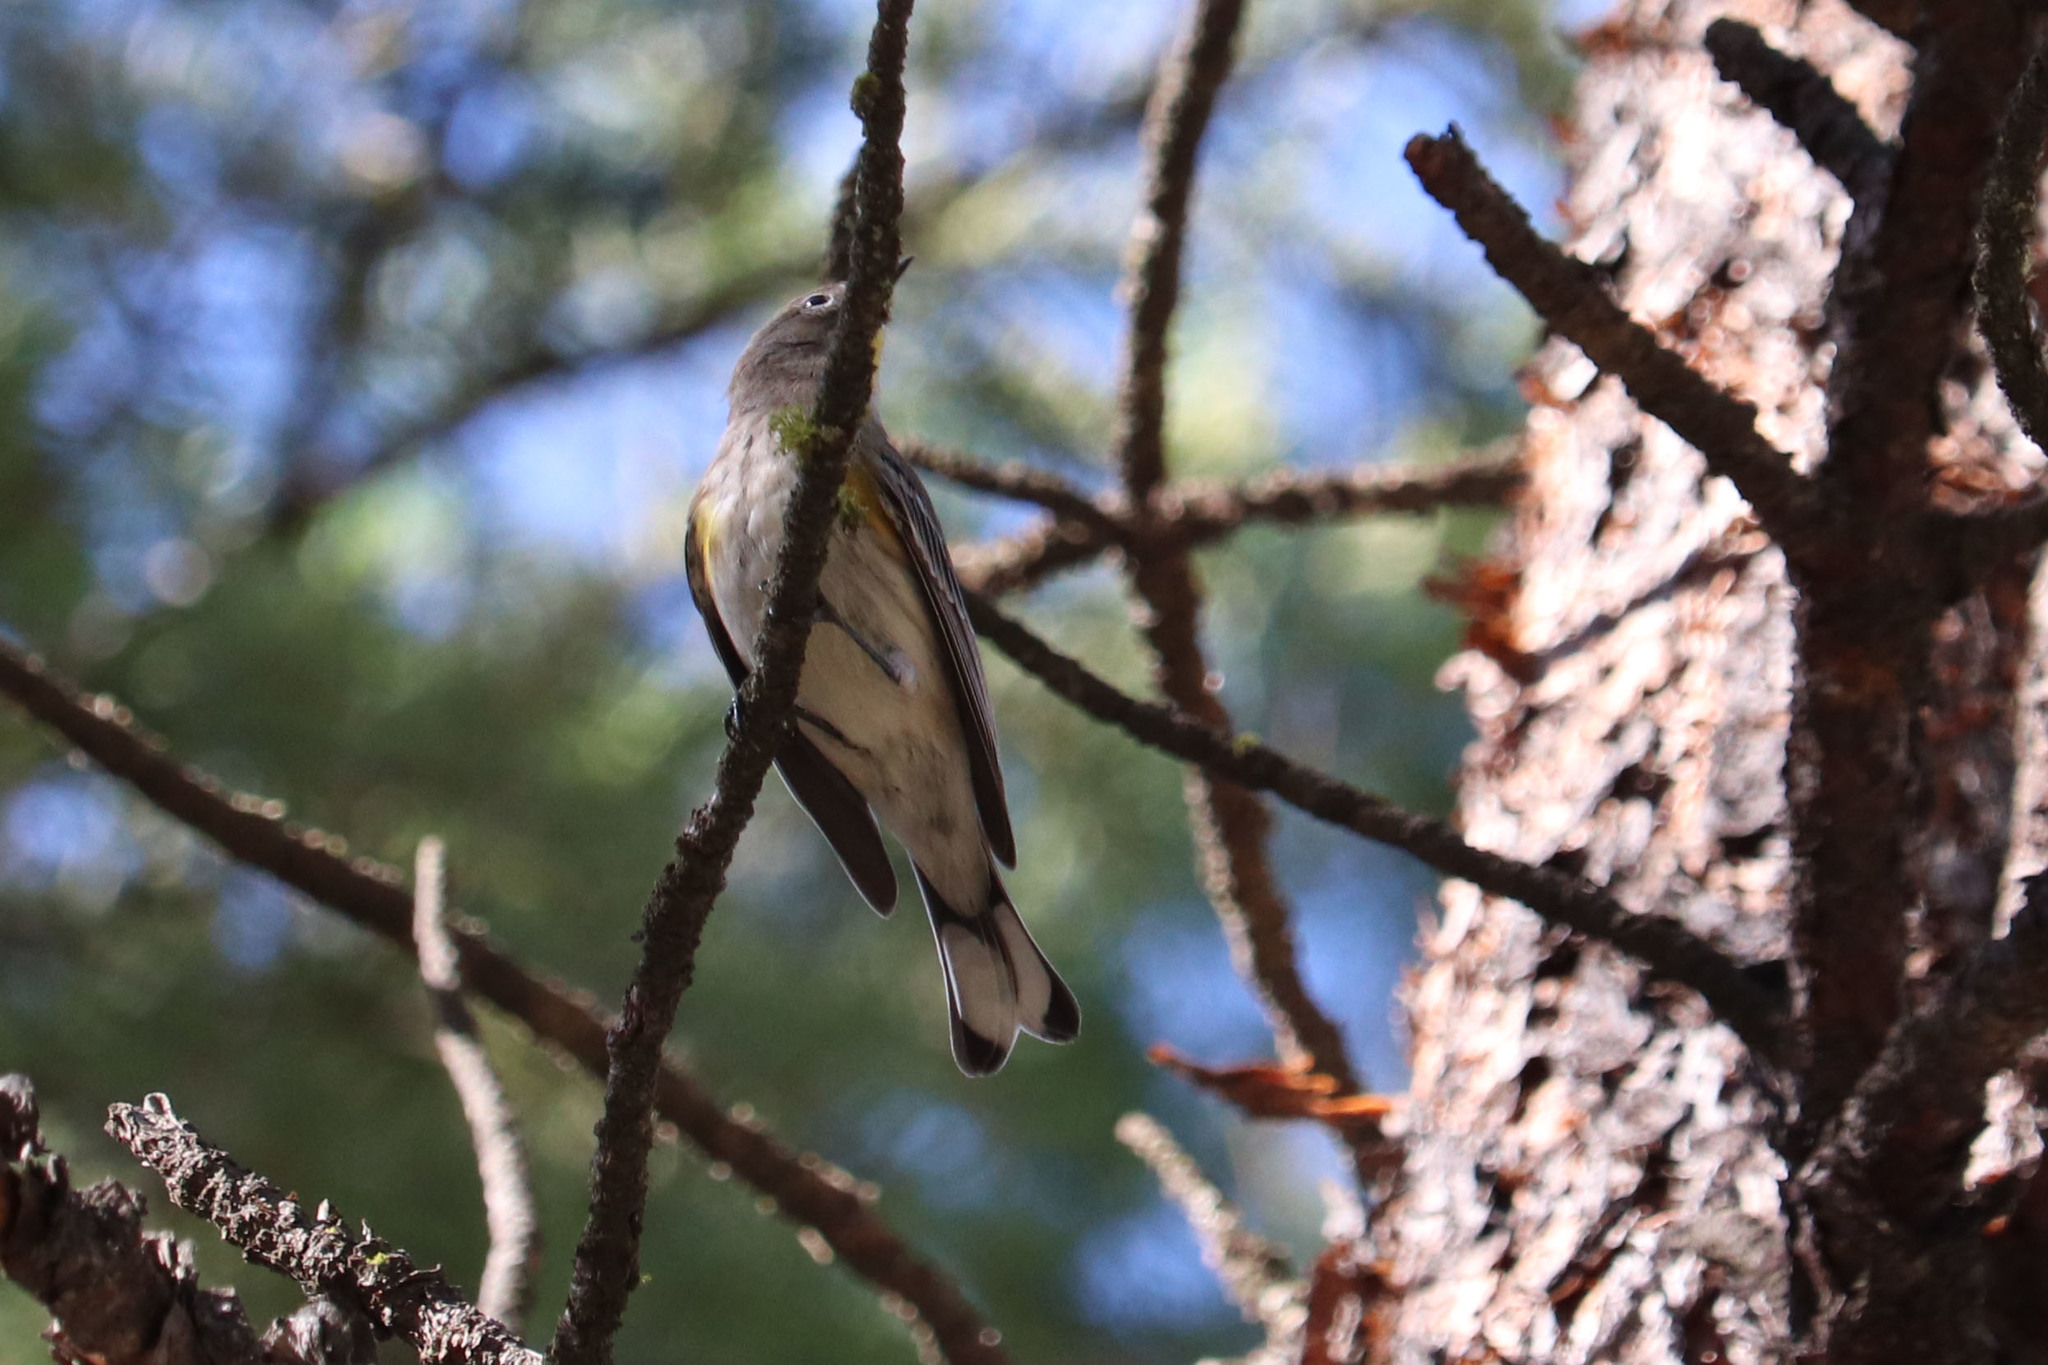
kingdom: Animalia
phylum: Chordata
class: Aves
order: Passeriformes
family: Parulidae
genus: Setophaga
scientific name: Setophaga coronata
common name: Myrtle warbler
